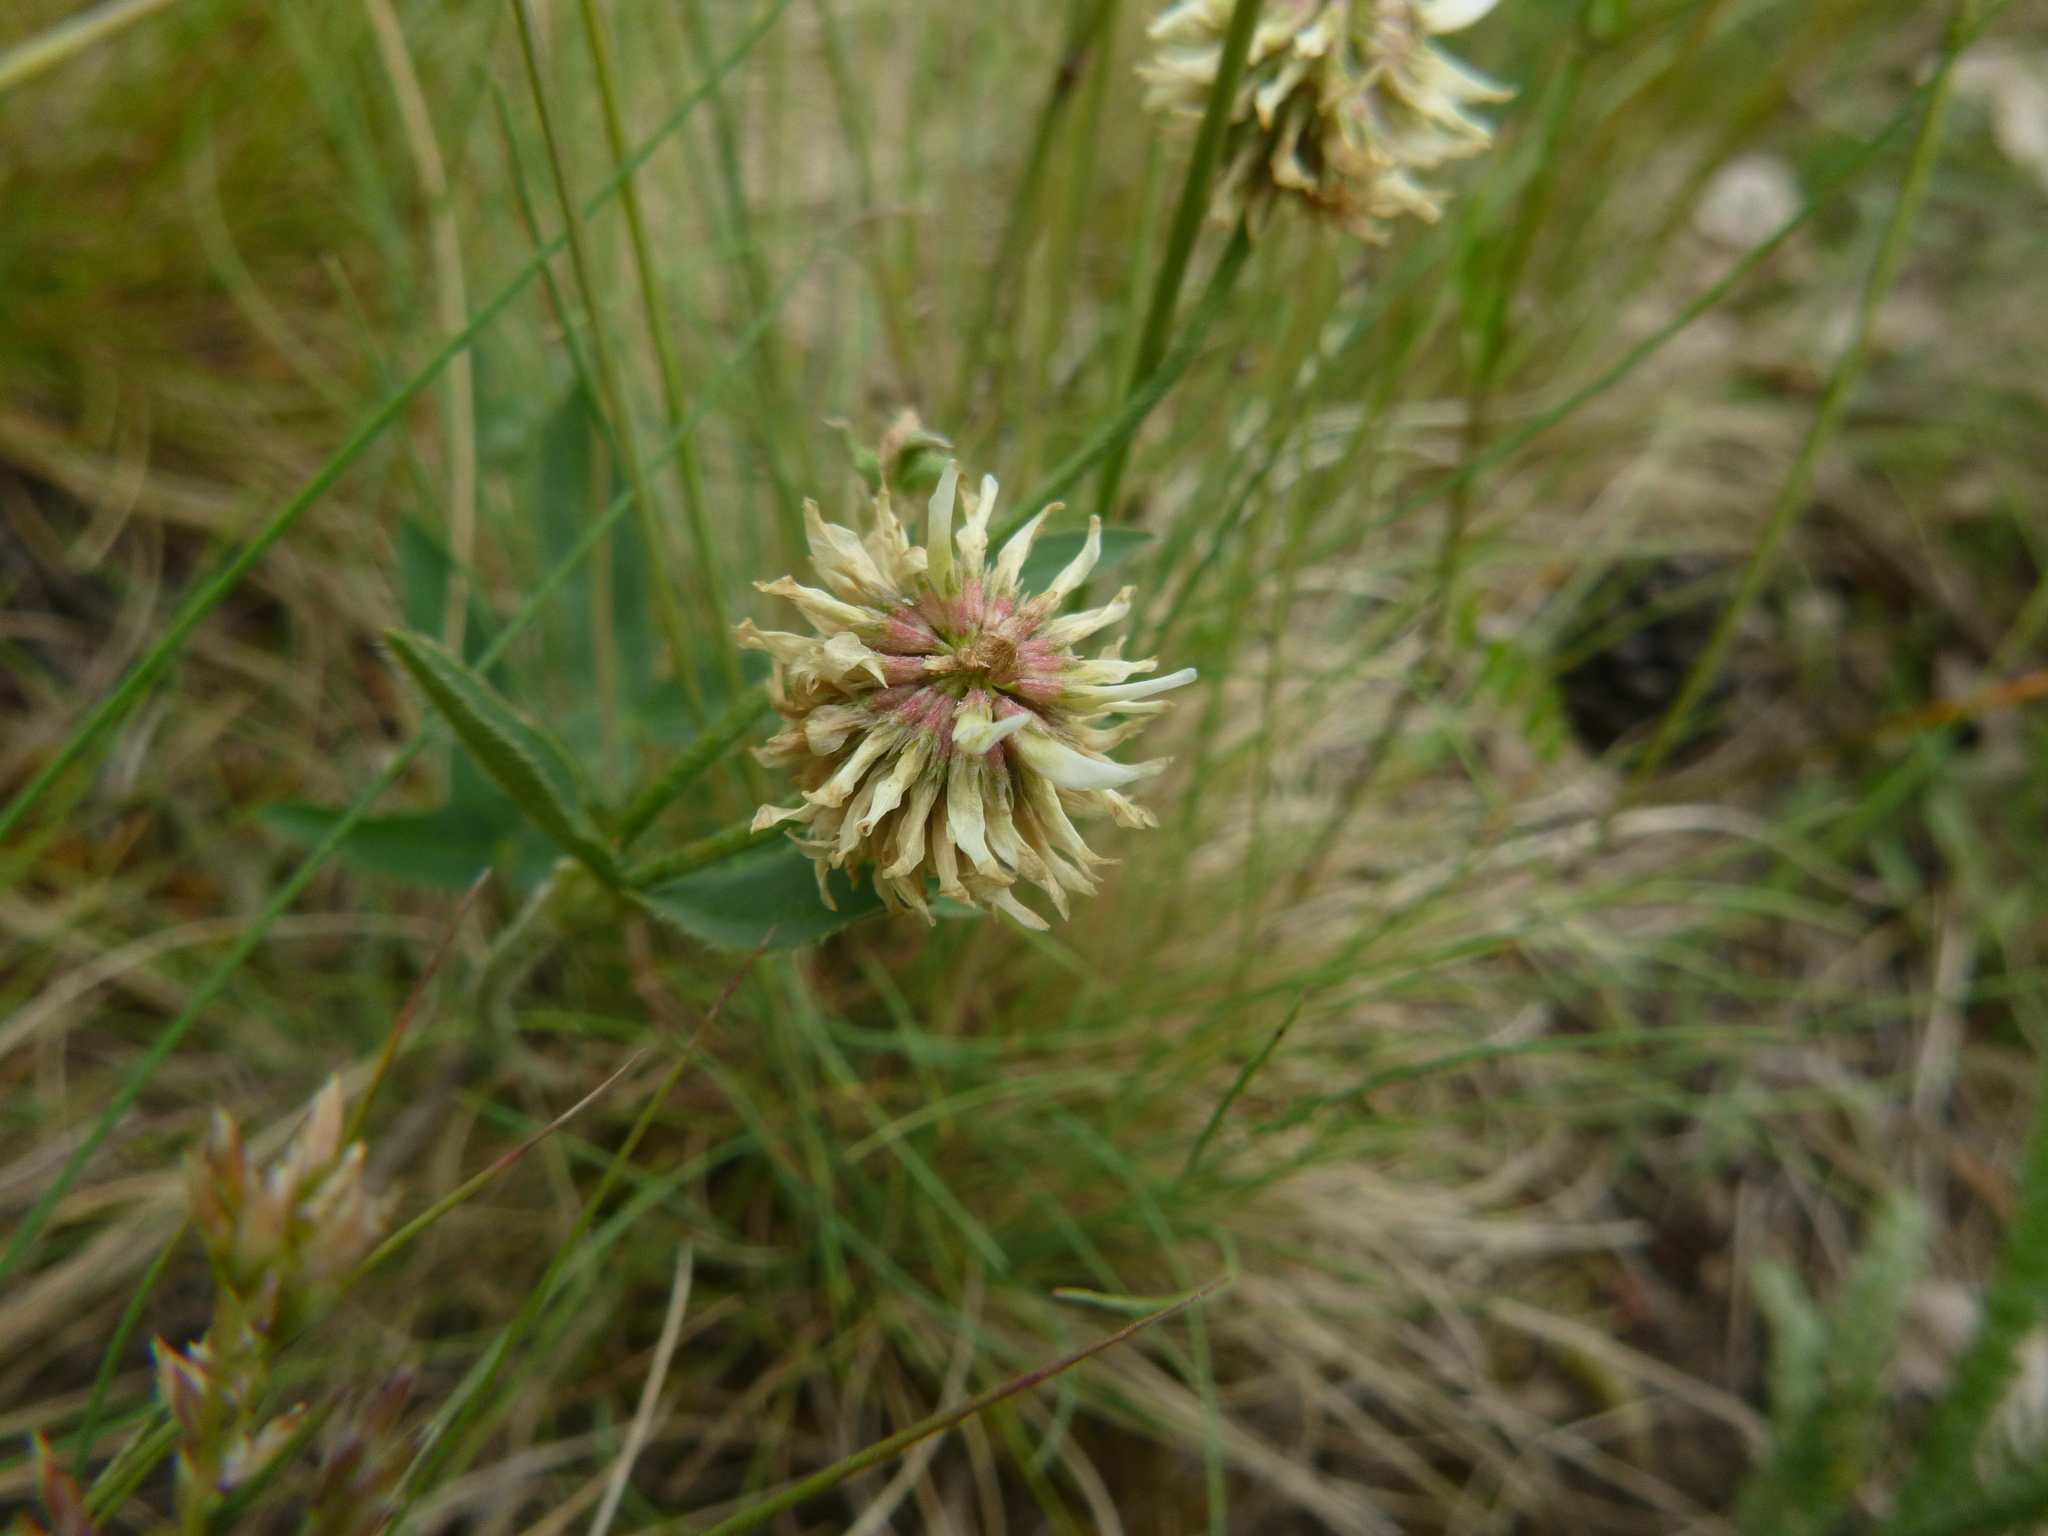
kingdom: Plantae
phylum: Tracheophyta
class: Magnoliopsida
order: Fabales
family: Fabaceae
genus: Trifolium
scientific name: Trifolium montanum
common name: Mountain clover
